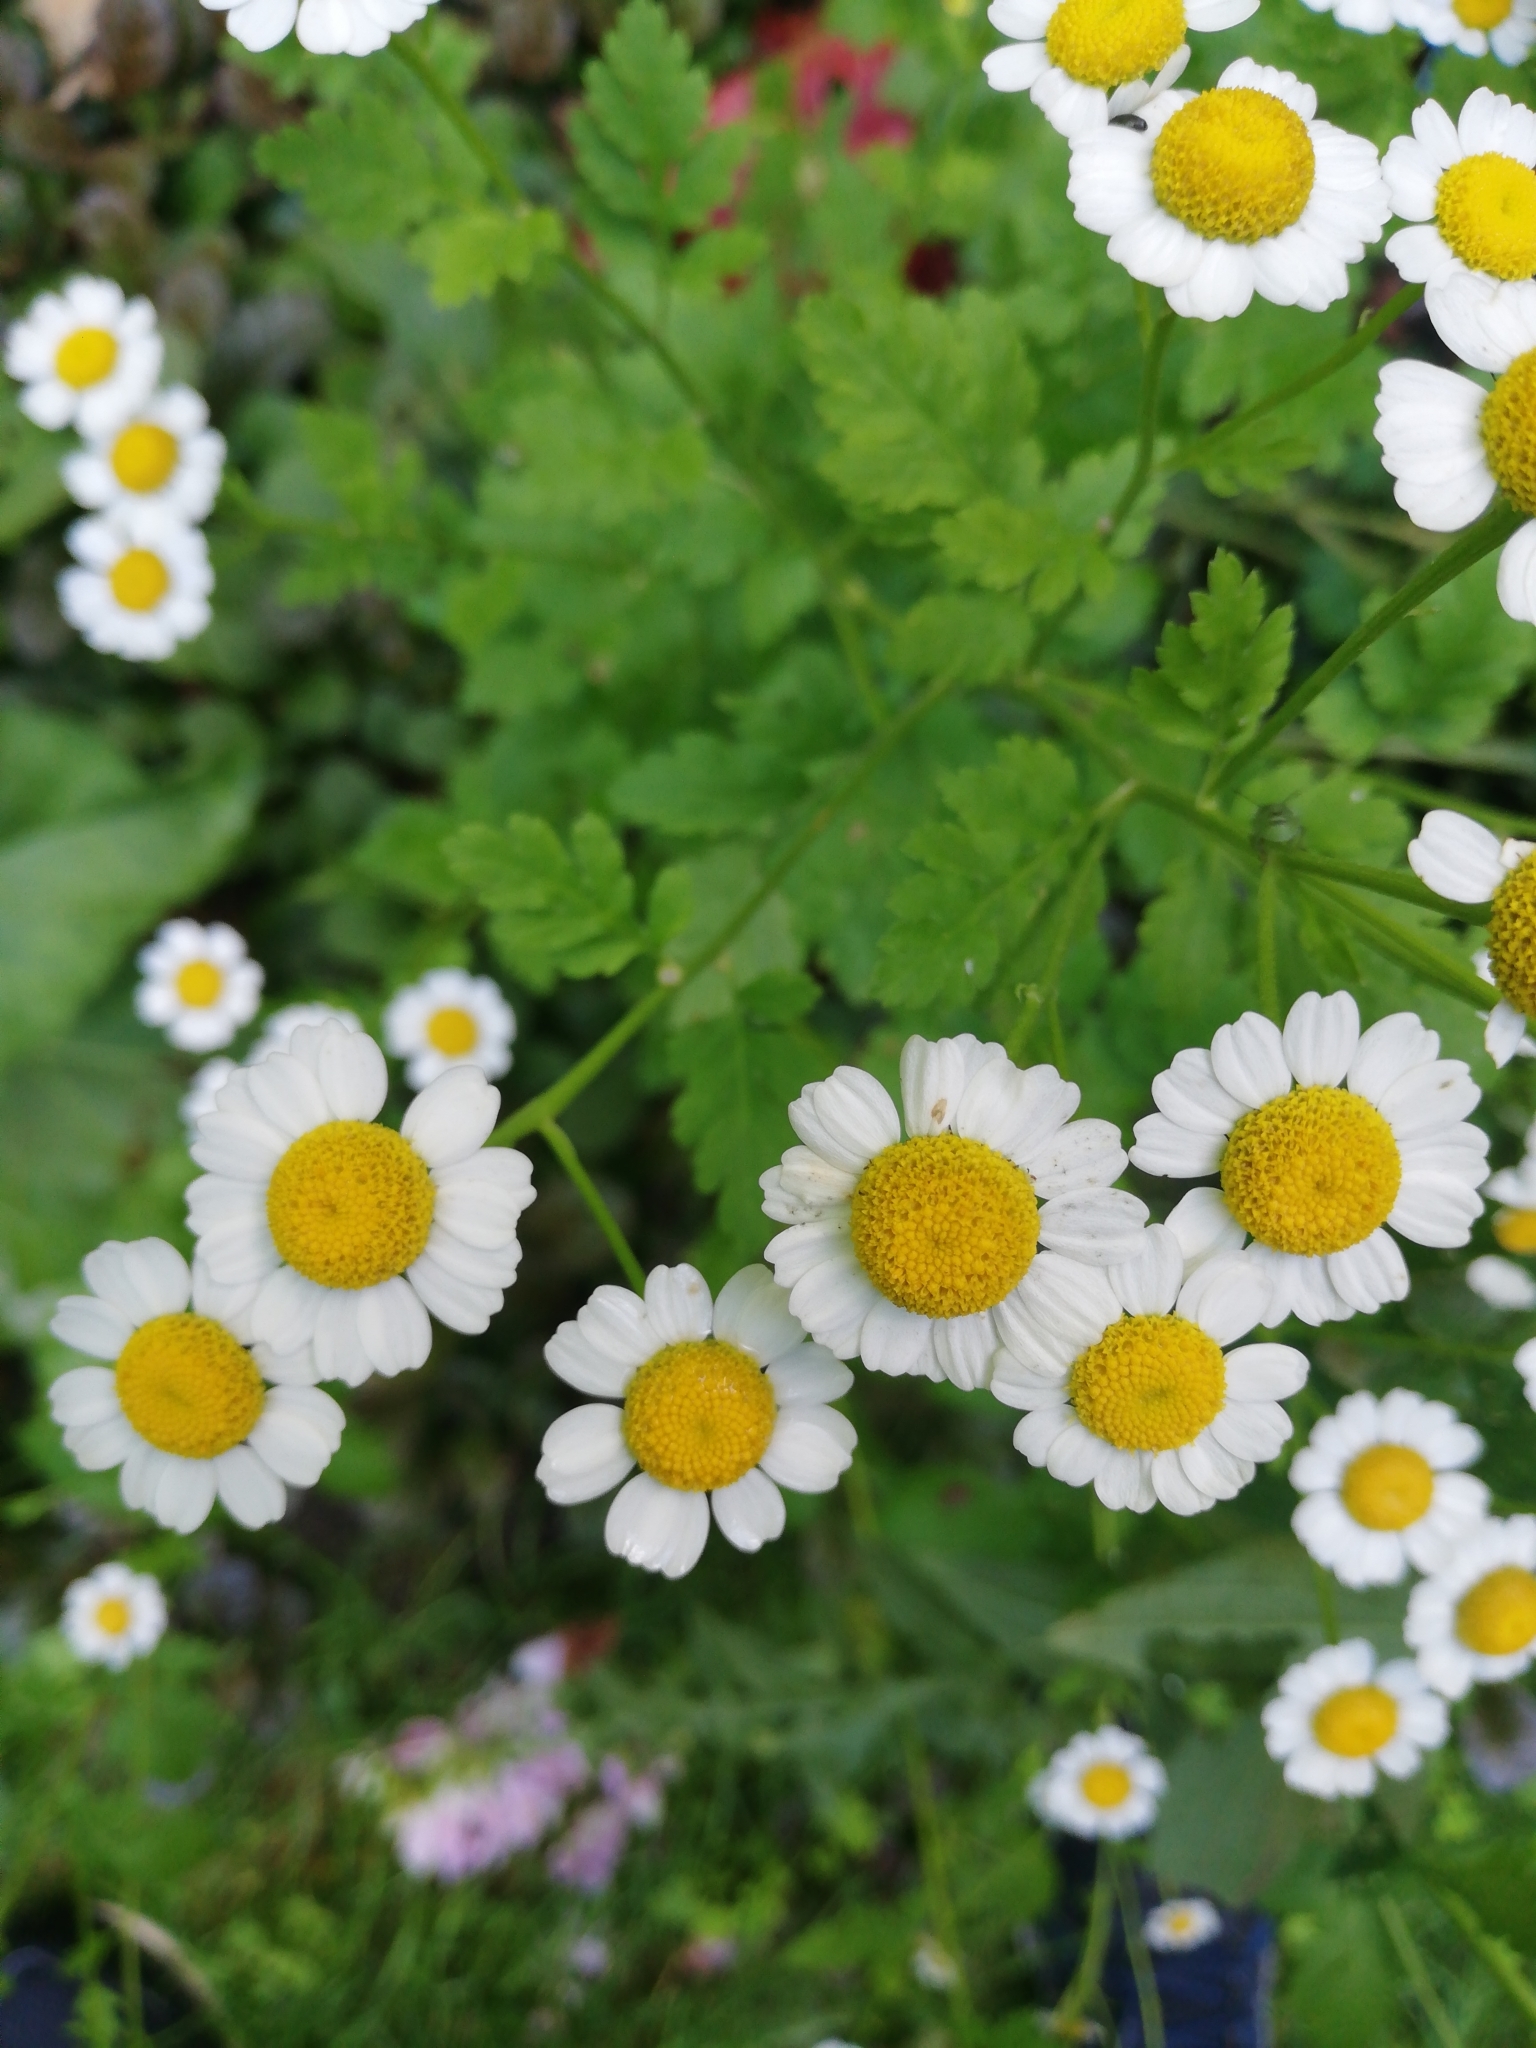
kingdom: Plantae
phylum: Tracheophyta
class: Magnoliopsida
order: Asterales
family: Asteraceae
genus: Tanacetum
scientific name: Tanacetum parthenium
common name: Feverfew
